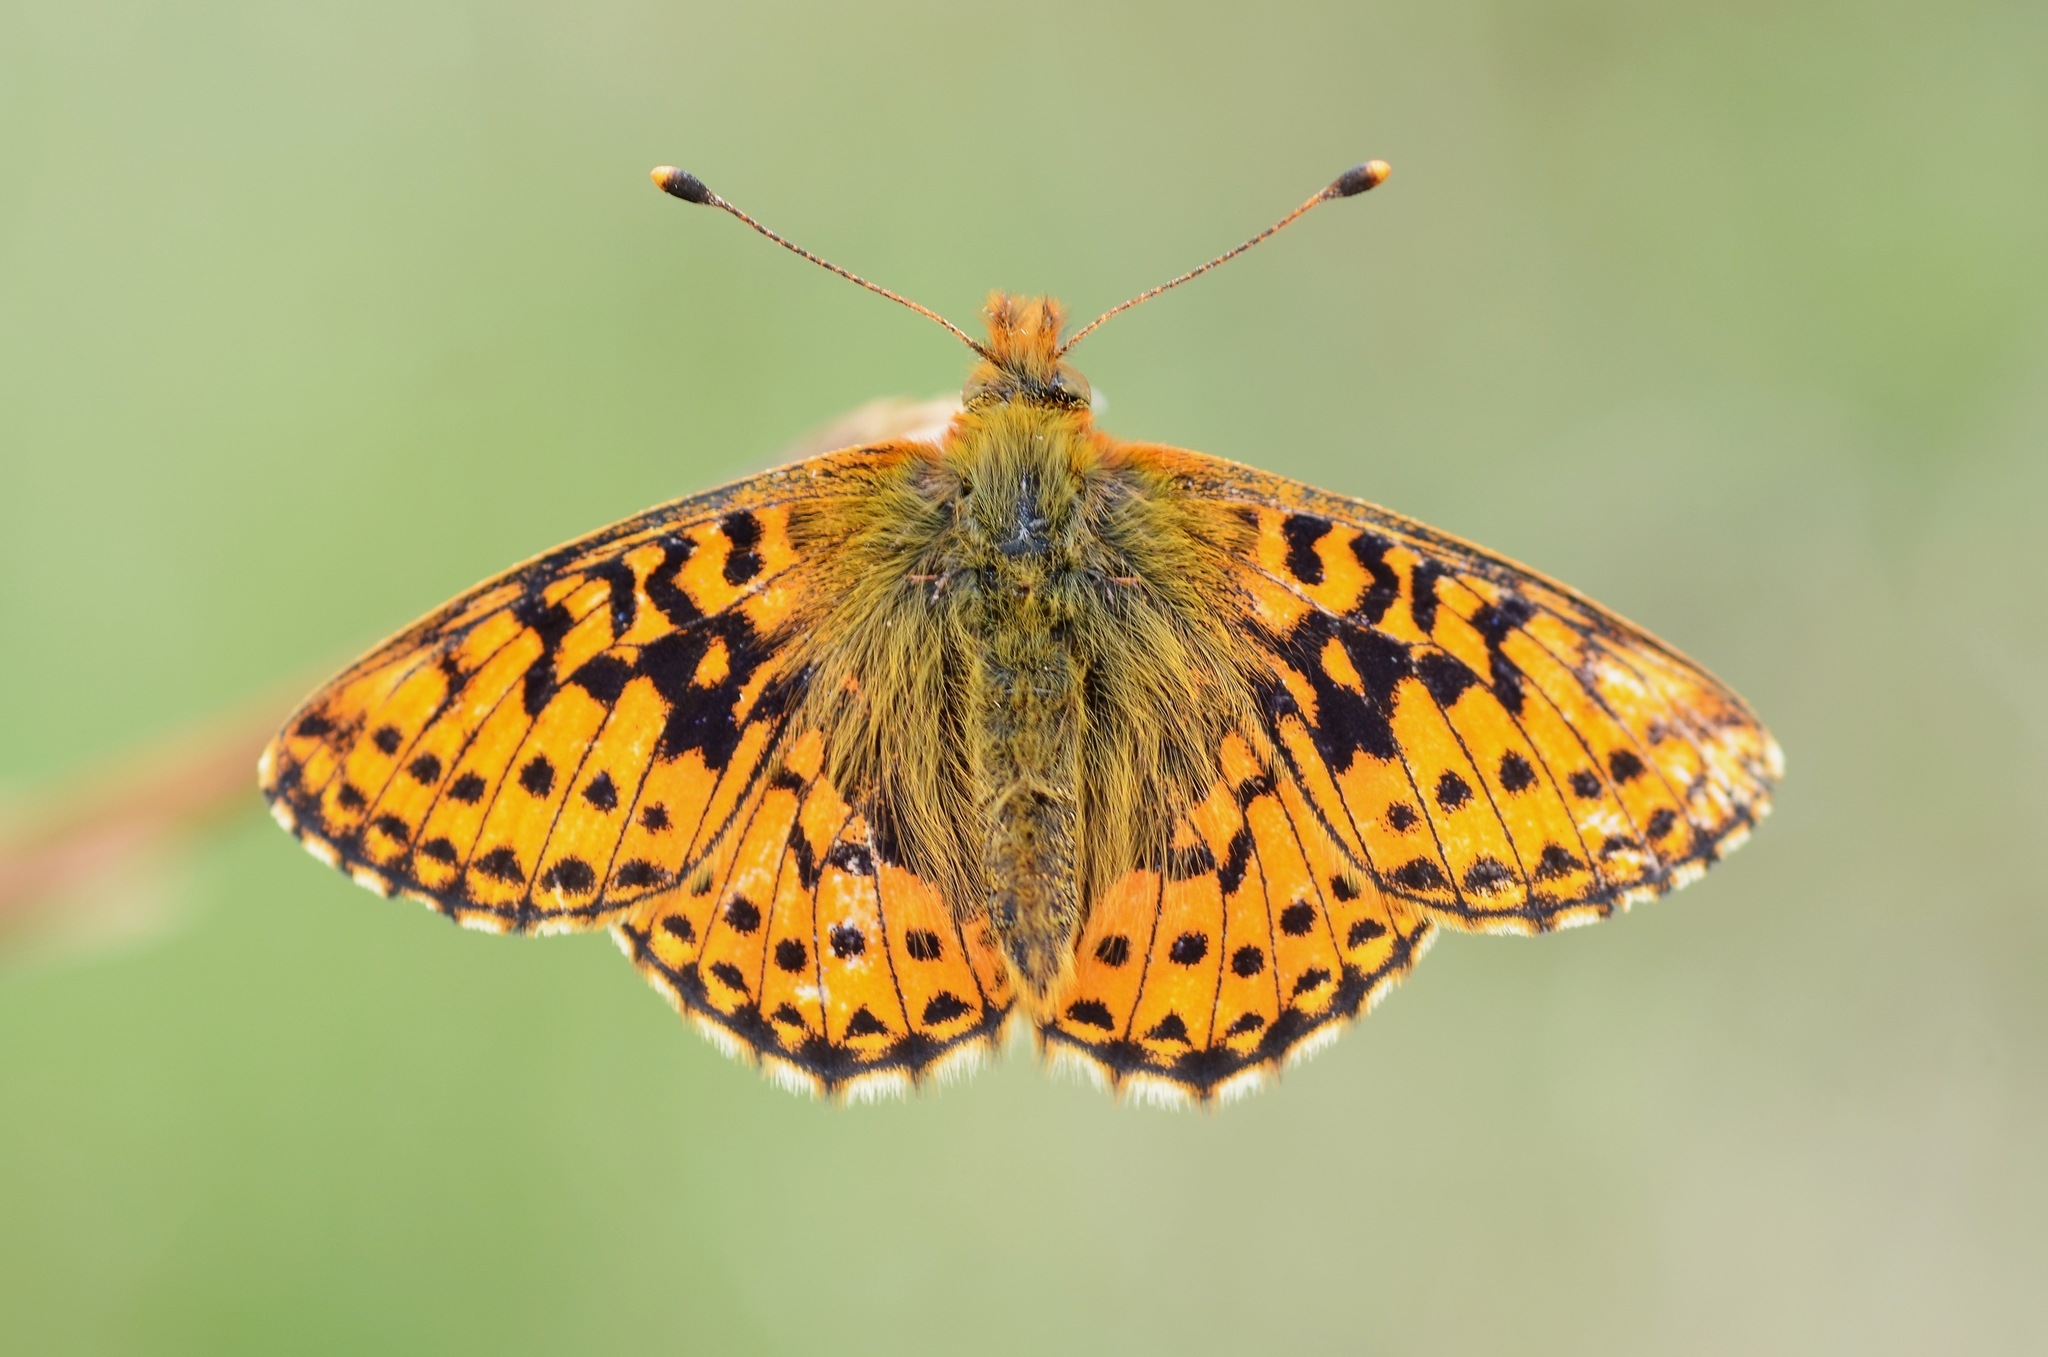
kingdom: Animalia
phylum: Arthropoda
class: Insecta
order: Lepidoptera
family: Nymphalidae
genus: Boloria
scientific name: Boloria aquilonaris
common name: Cranberry fritillary
